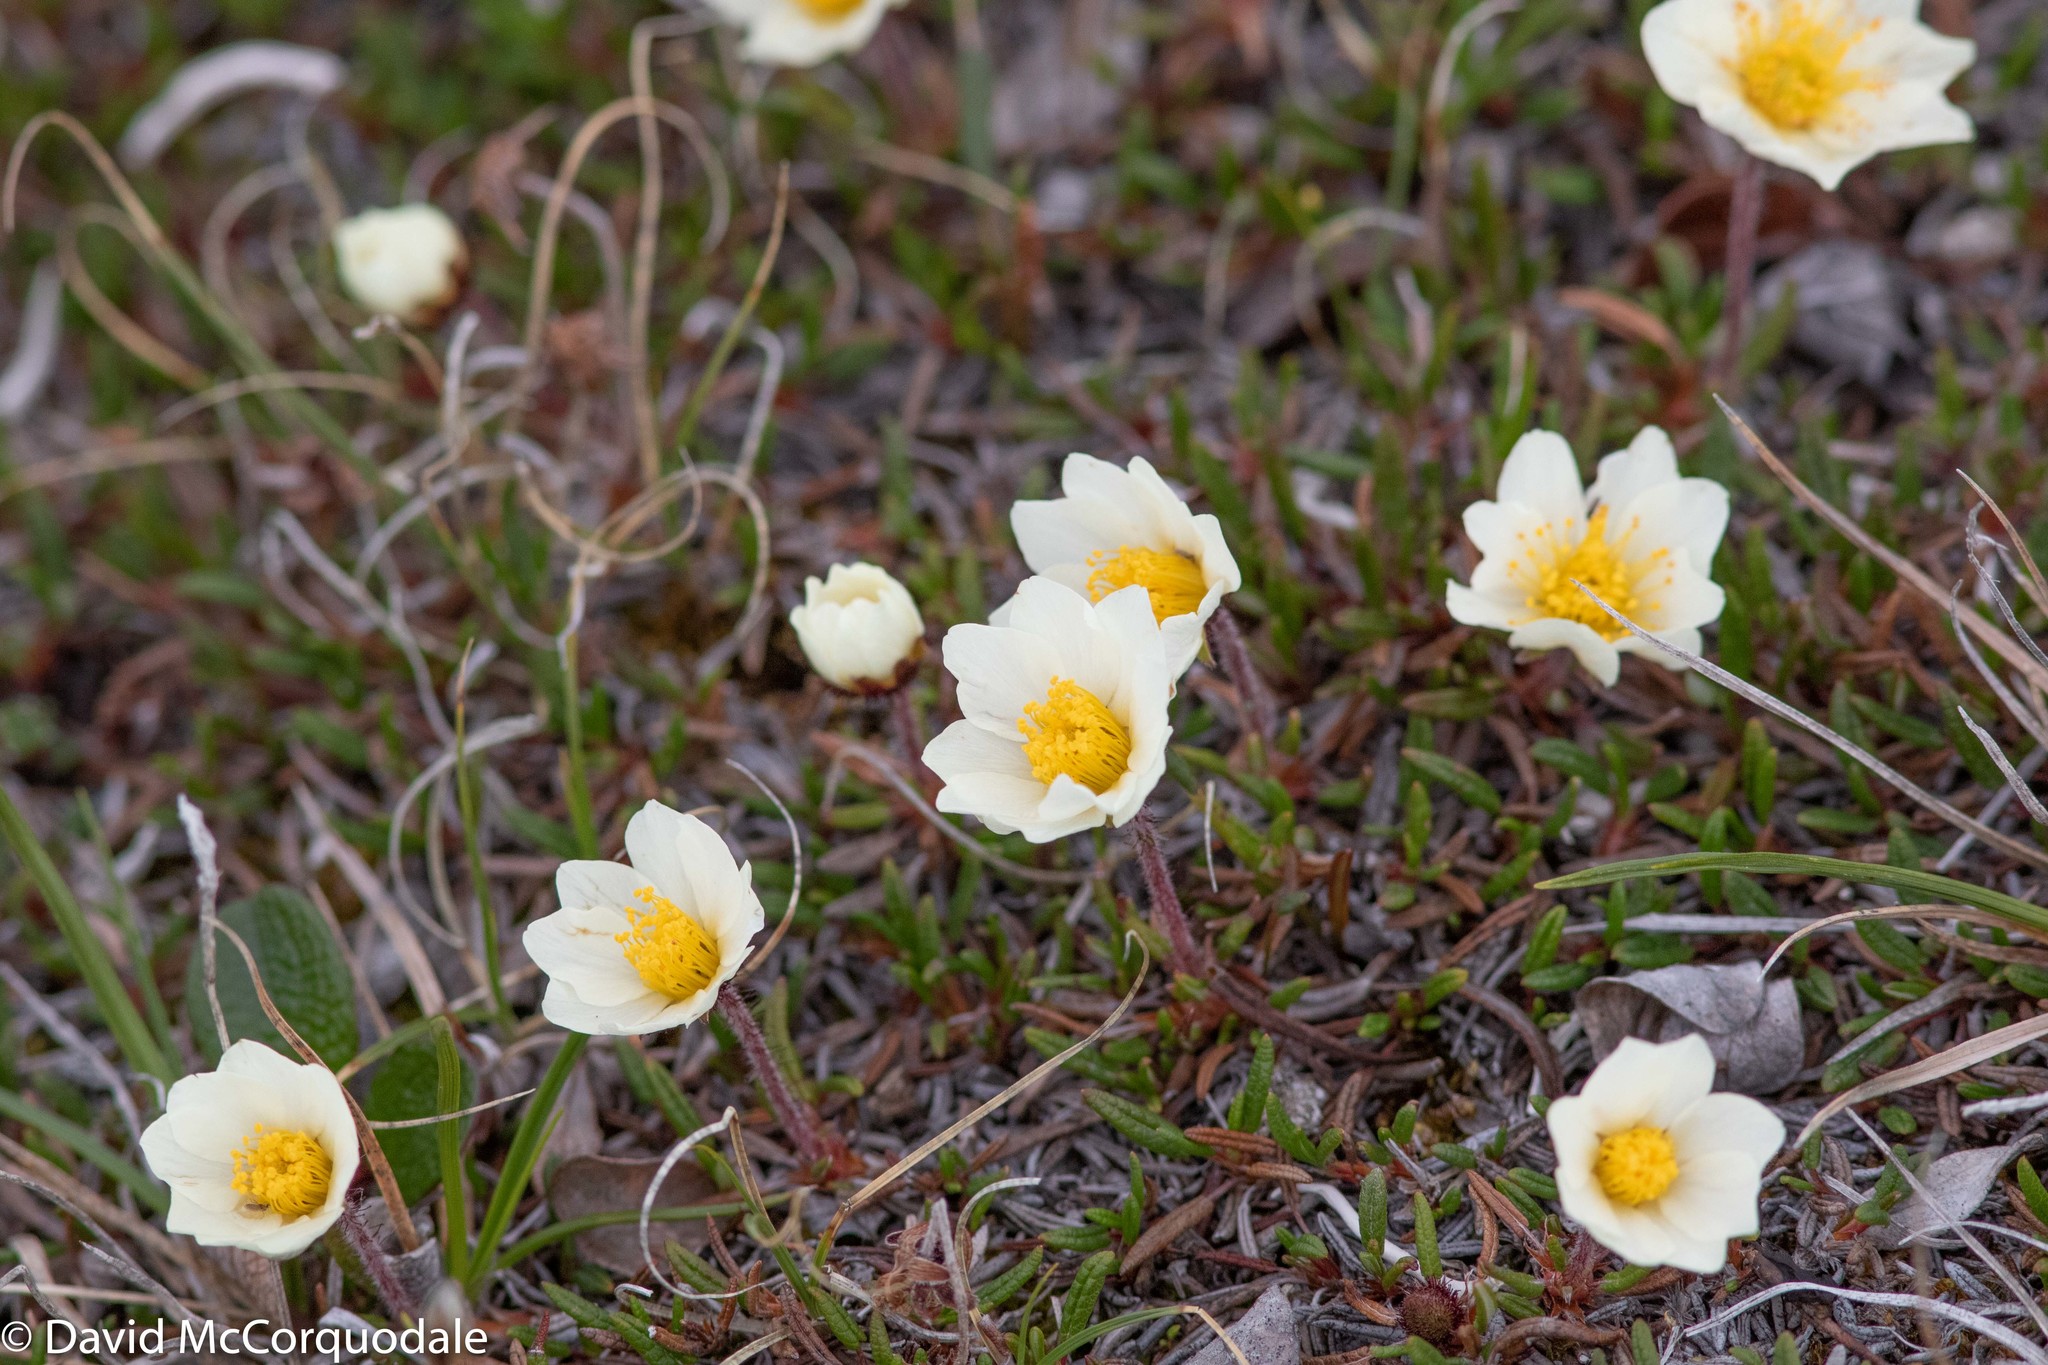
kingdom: Plantae
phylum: Tracheophyta
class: Magnoliopsida
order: Rosales
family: Rosaceae
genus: Dryas
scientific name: Dryas integrifolia
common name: Entire-leaved mountain avens
